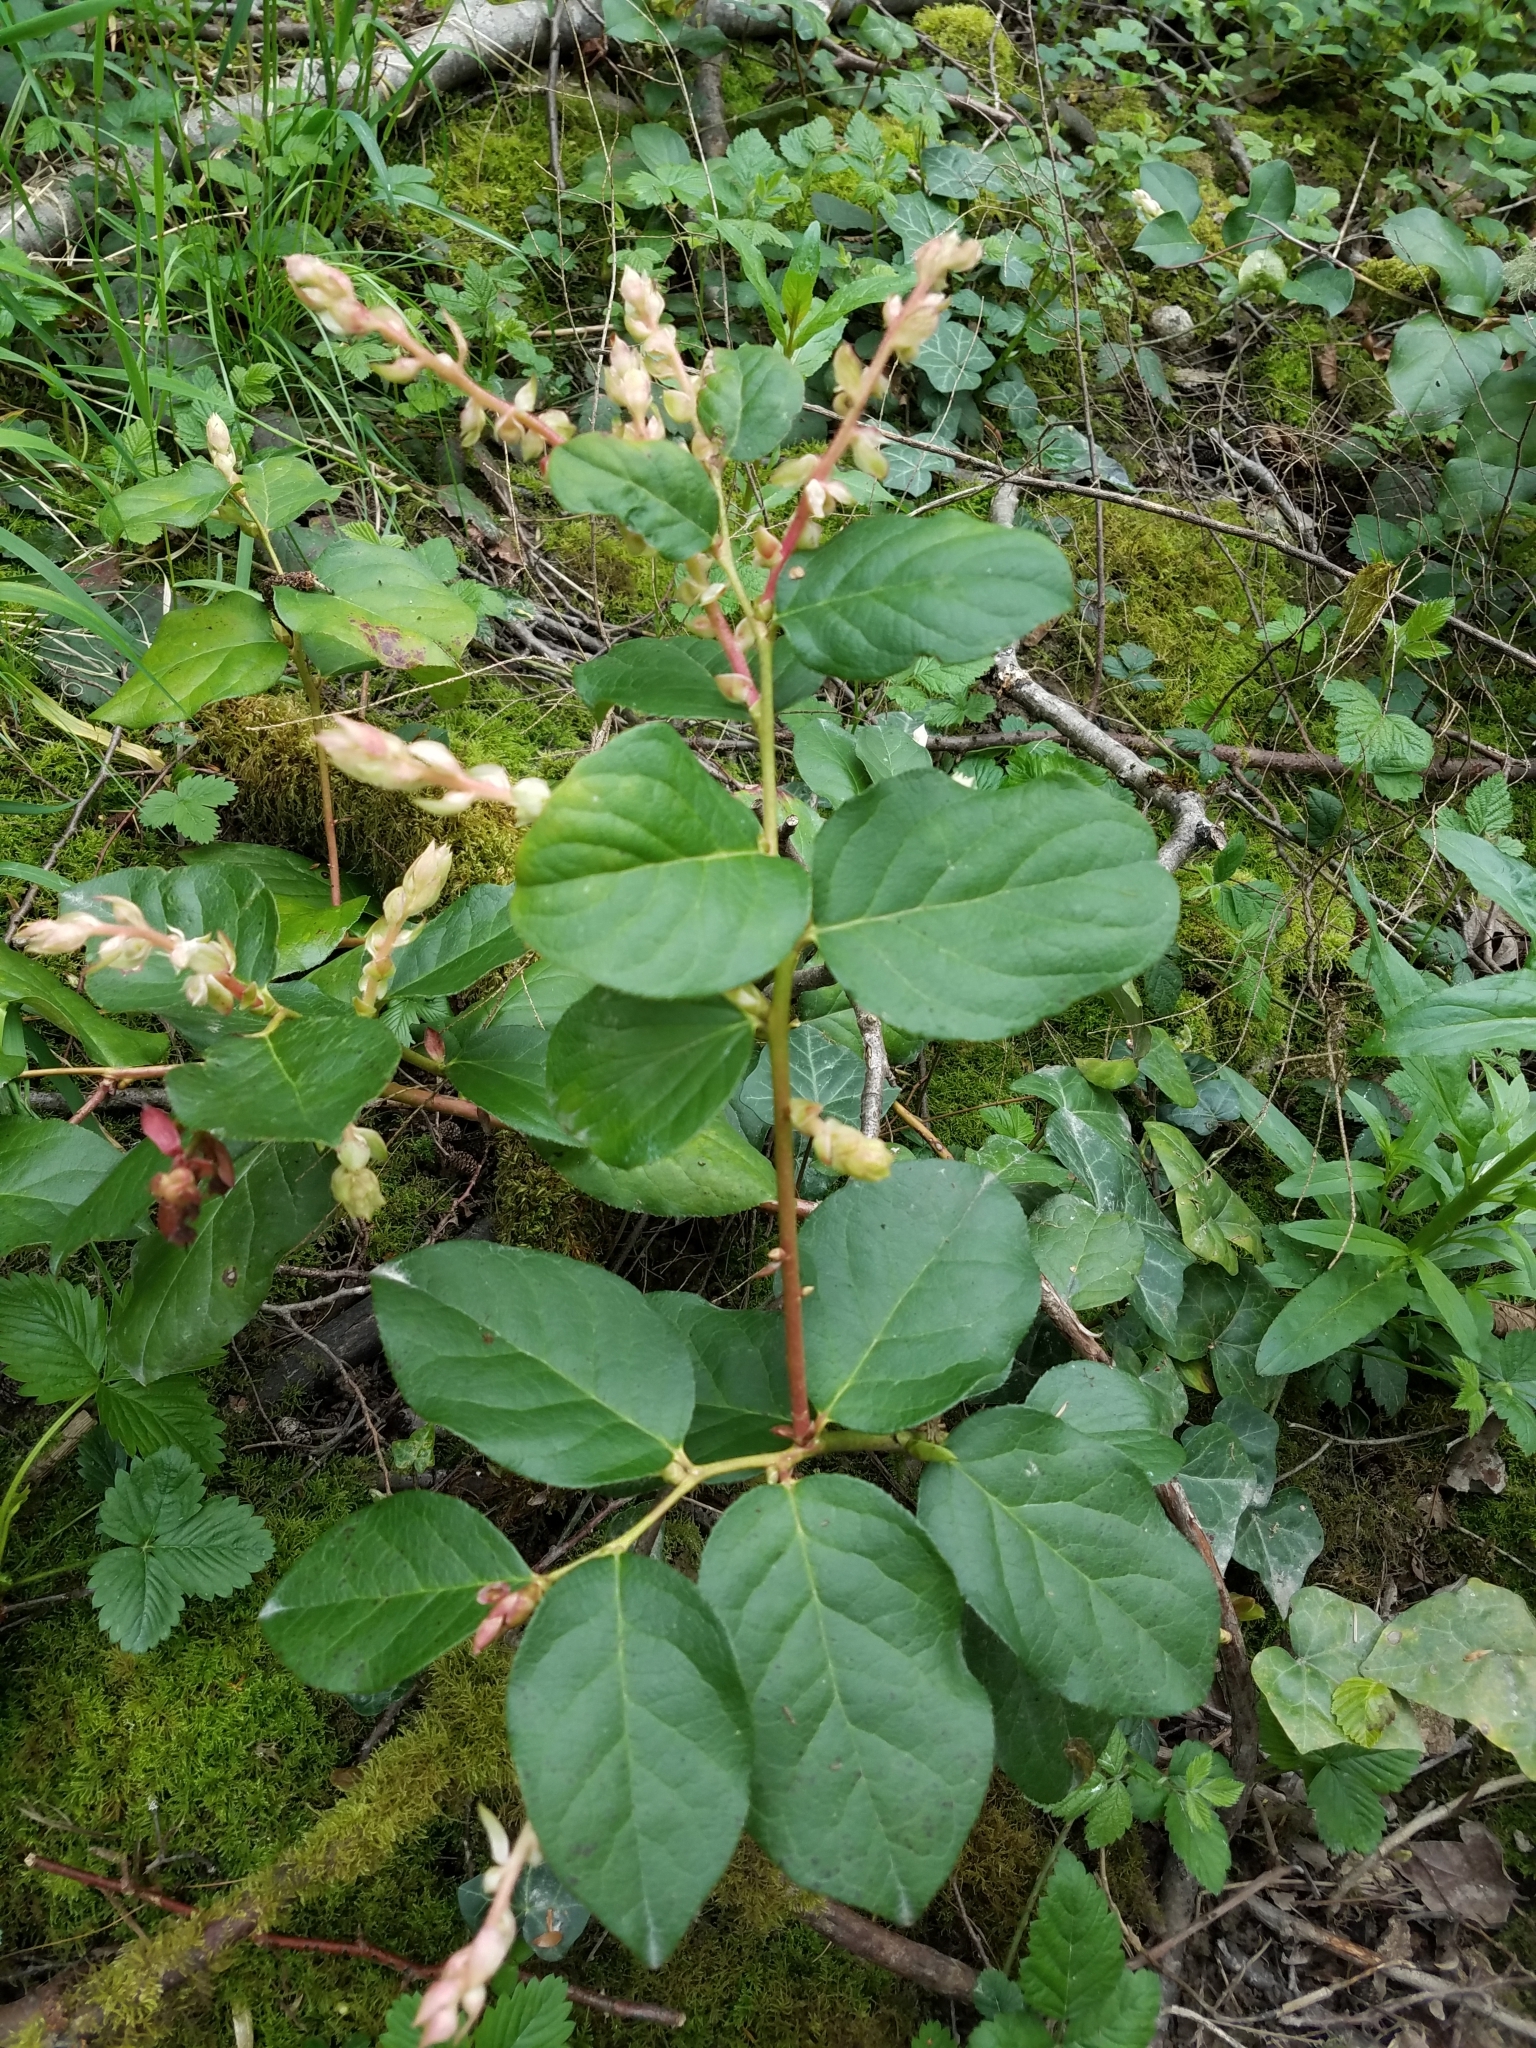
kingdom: Plantae
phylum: Tracheophyta
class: Magnoliopsida
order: Ericales
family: Ericaceae
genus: Gaultheria
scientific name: Gaultheria shallon
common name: Shallon
